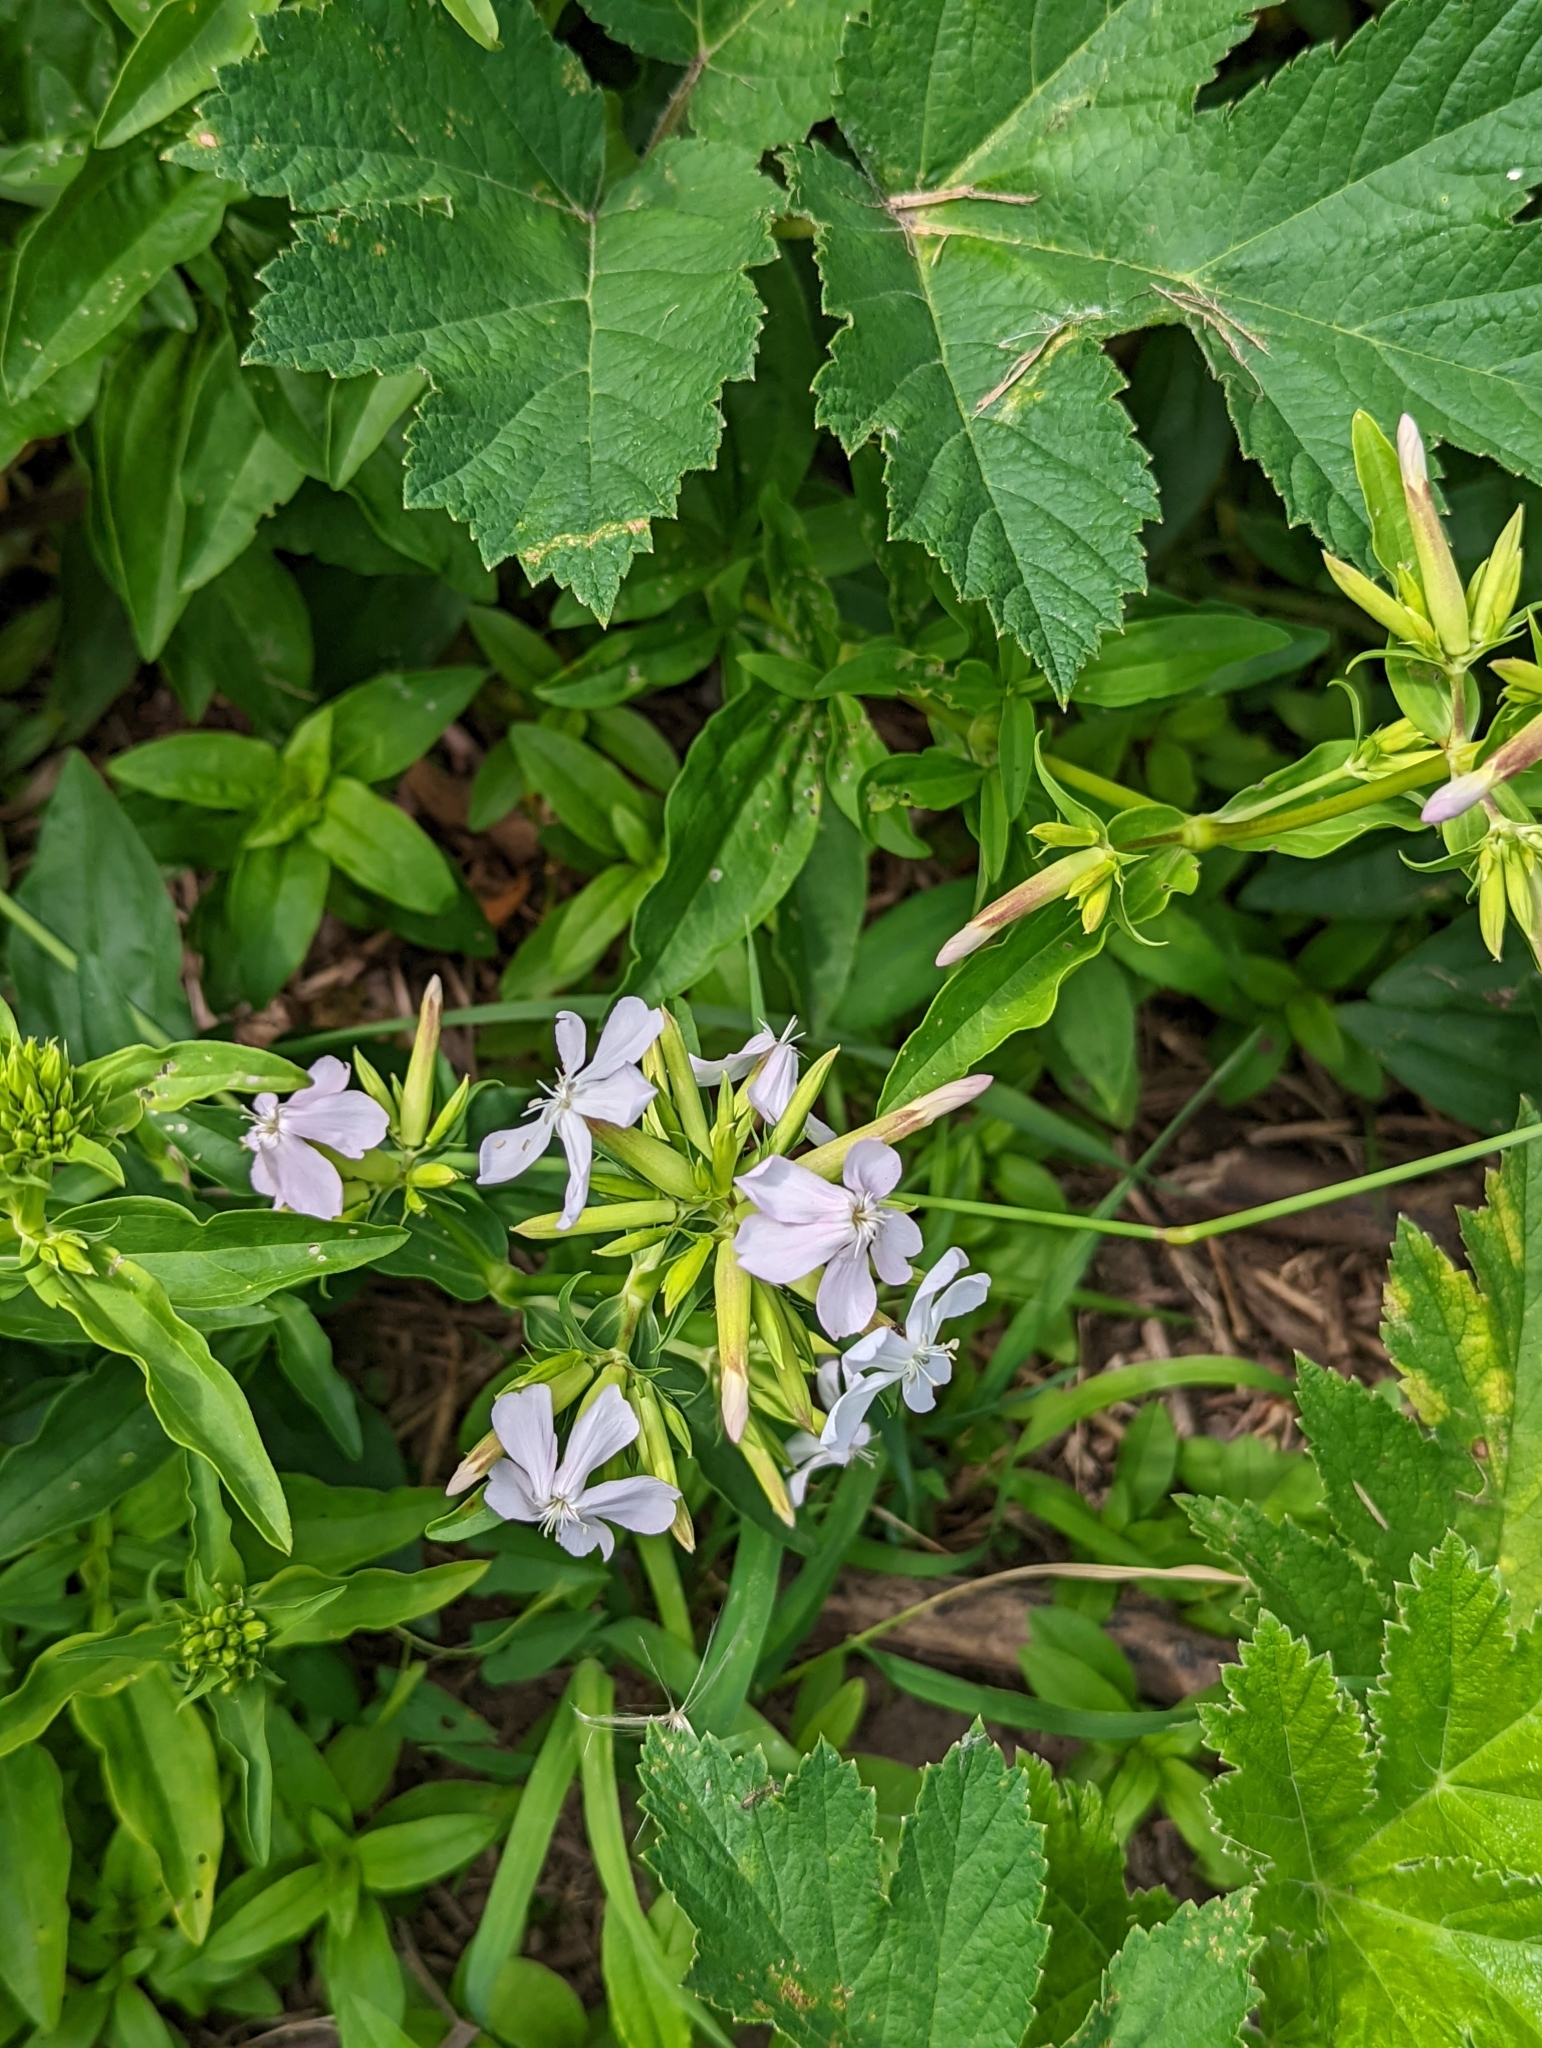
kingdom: Plantae
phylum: Tracheophyta
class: Magnoliopsida
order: Caryophyllales
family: Caryophyllaceae
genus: Saponaria
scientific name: Saponaria officinalis
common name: Soapwort
